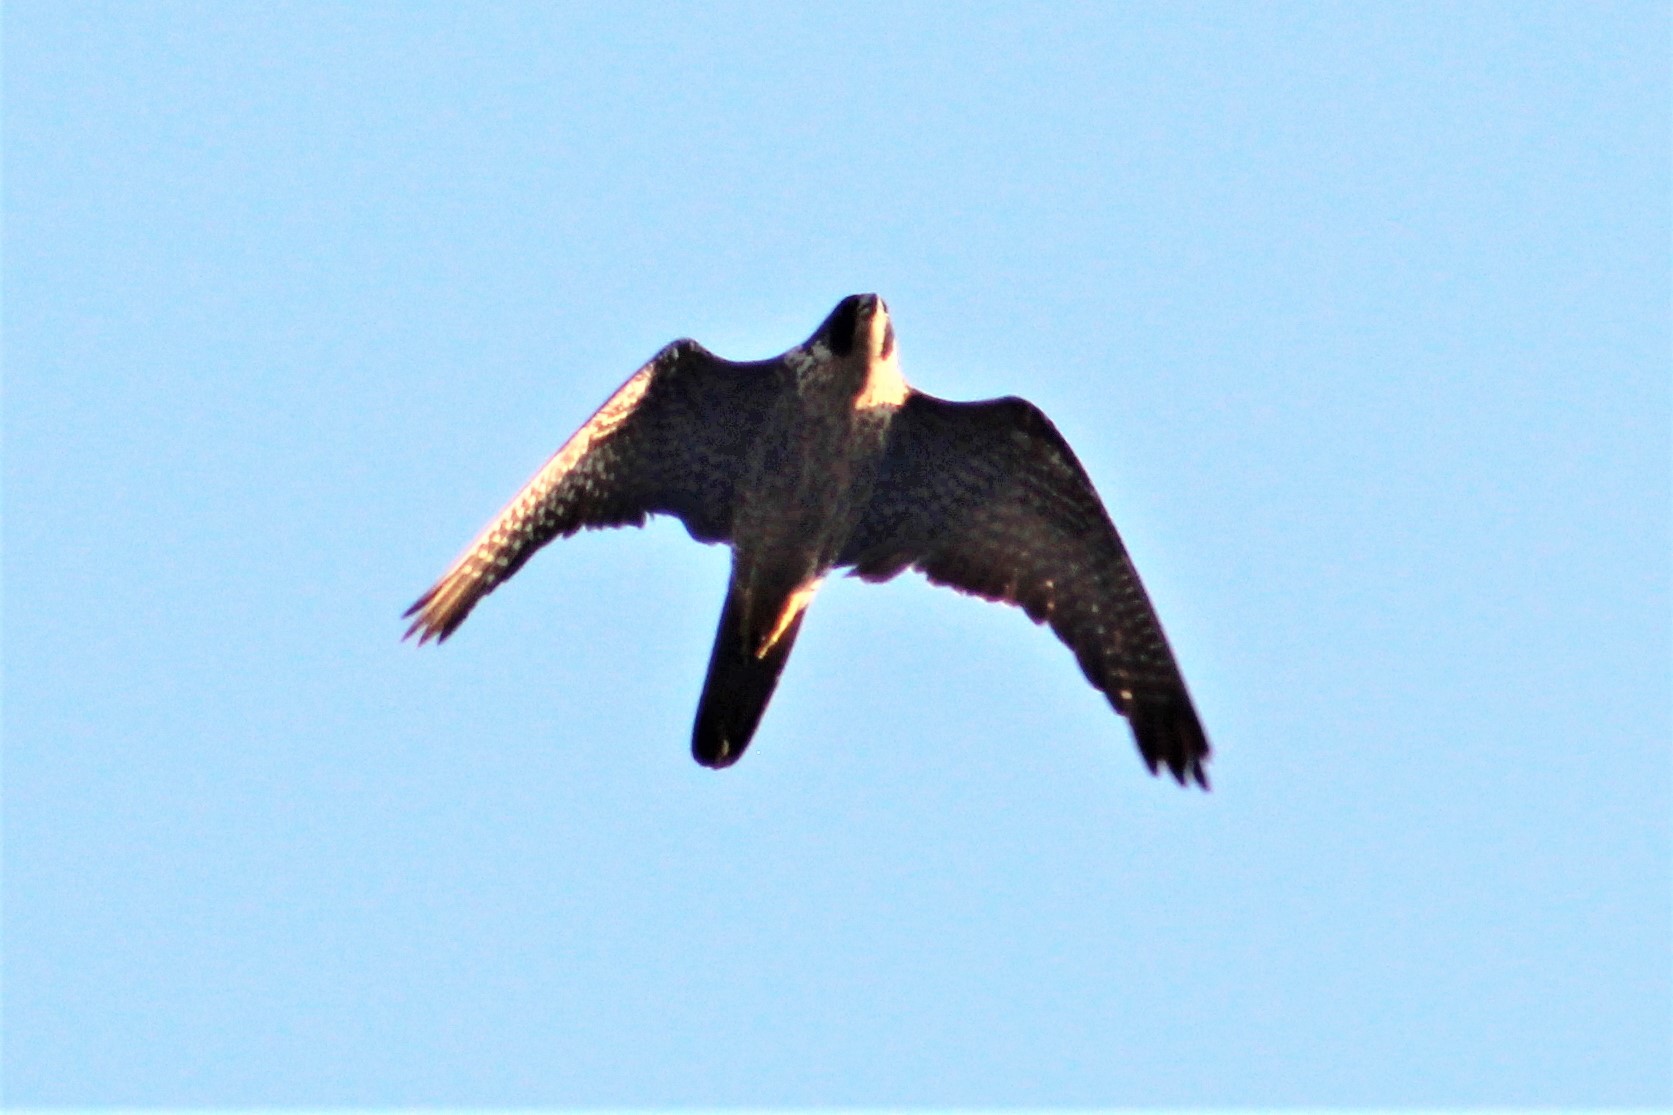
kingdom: Animalia
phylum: Chordata
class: Aves
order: Falconiformes
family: Falconidae
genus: Falco
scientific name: Falco peregrinus
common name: Peregrine falcon
